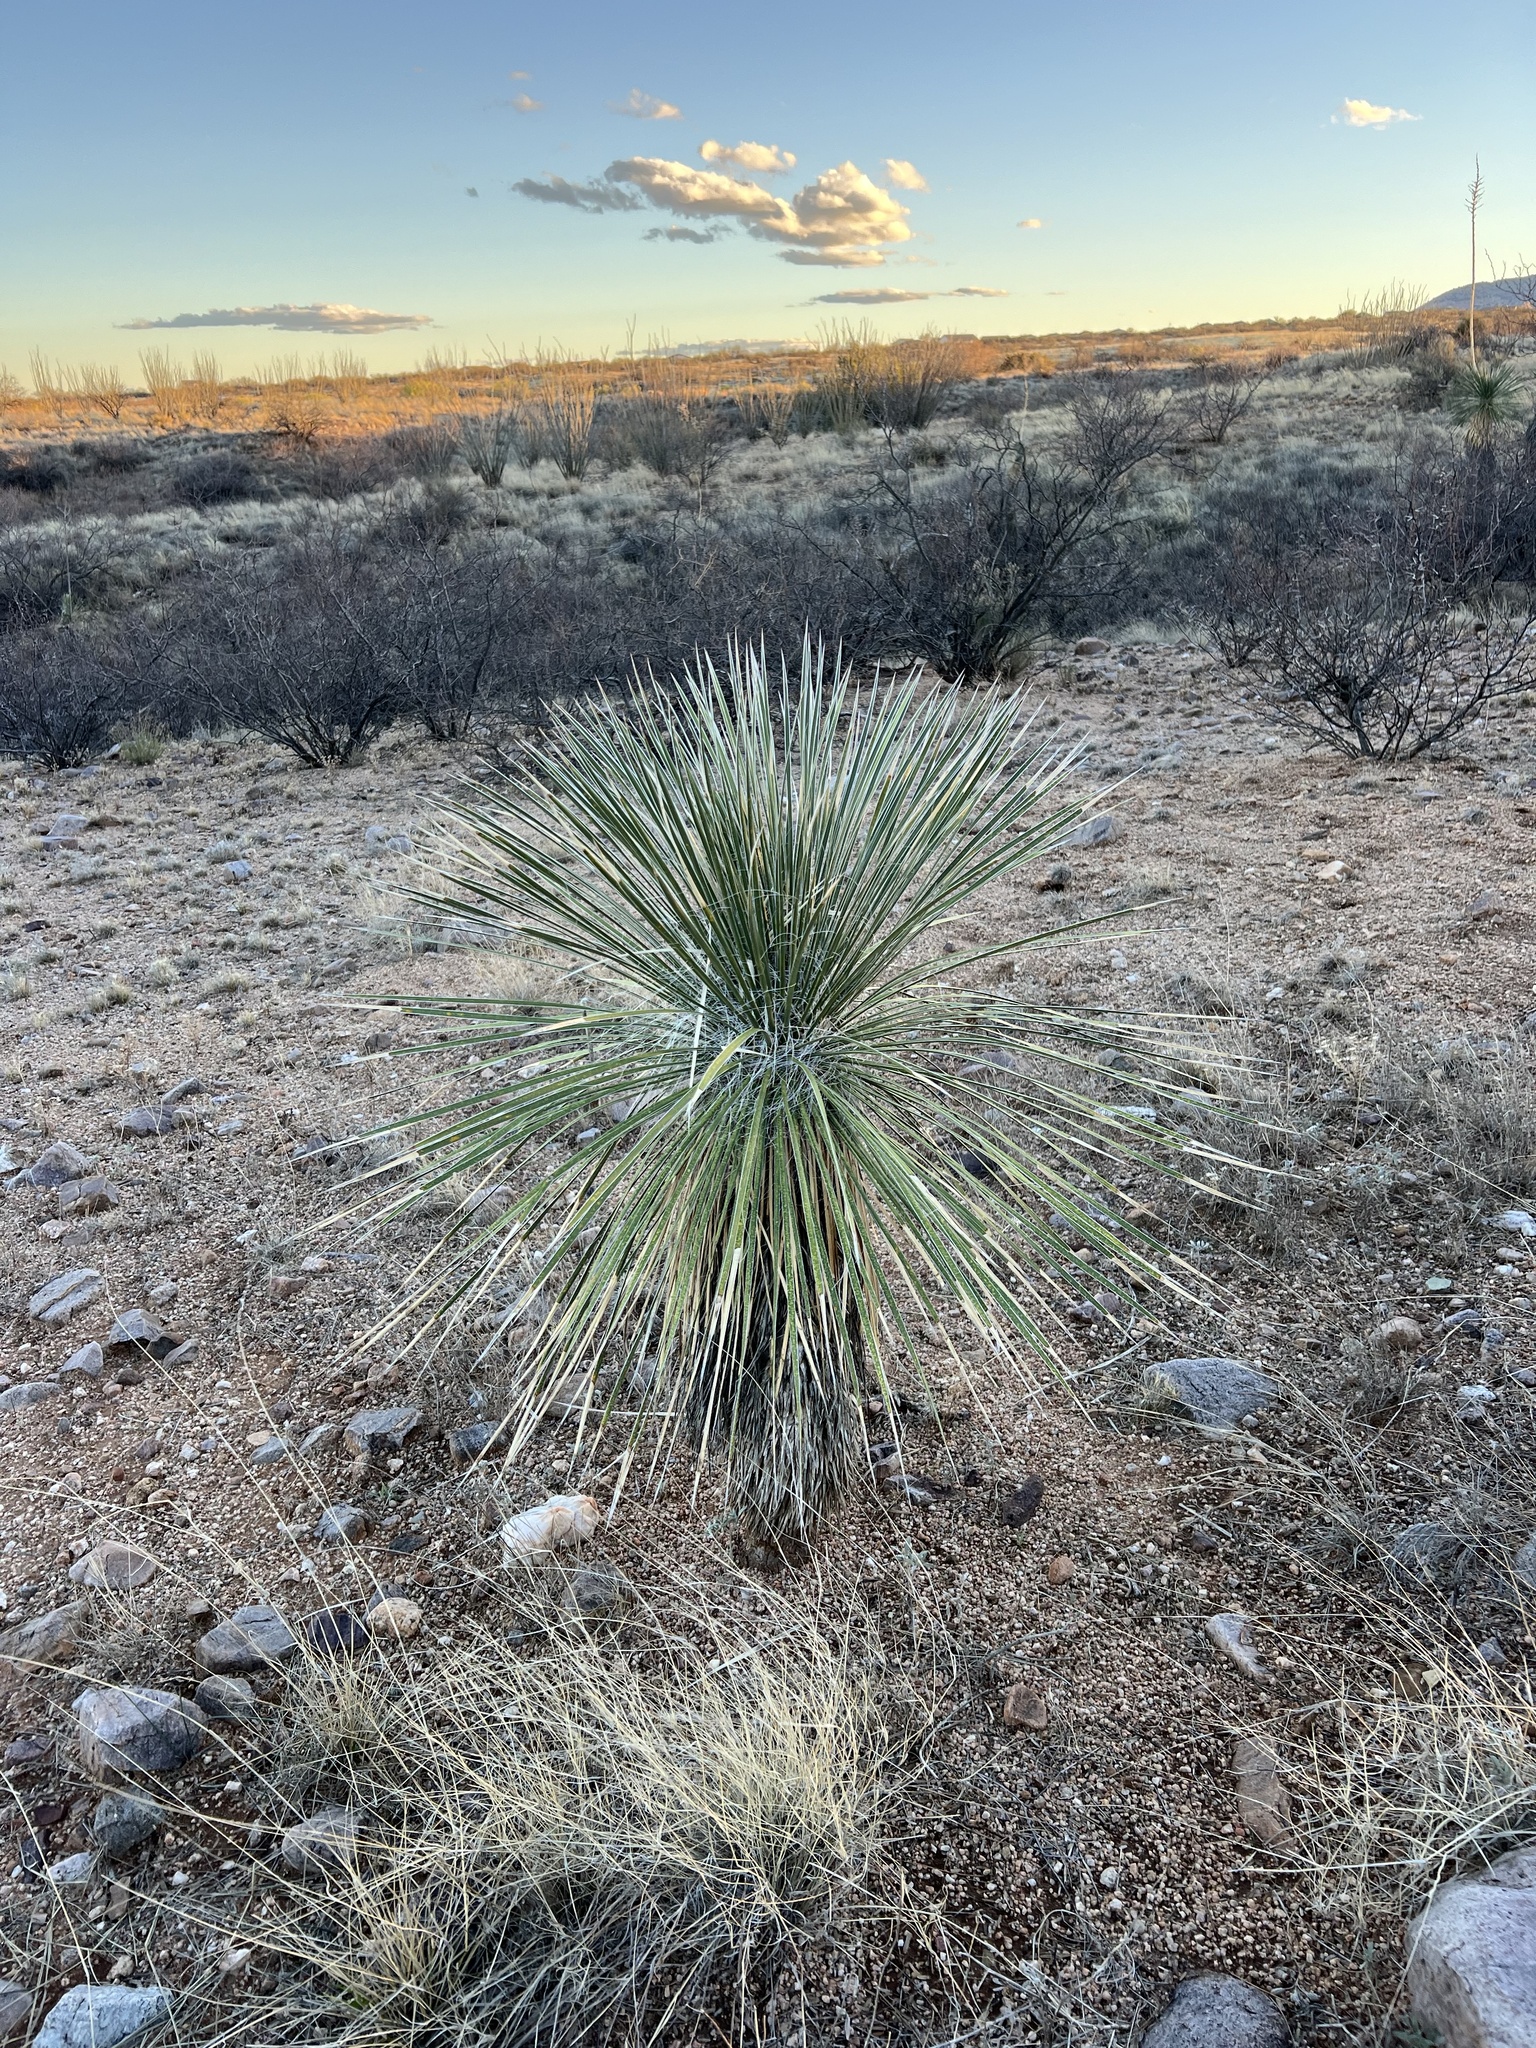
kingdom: Plantae
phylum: Tracheophyta
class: Liliopsida
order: Asparagales
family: Asparagaceae
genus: Yucca
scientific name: Yucca elata
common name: Palmella
